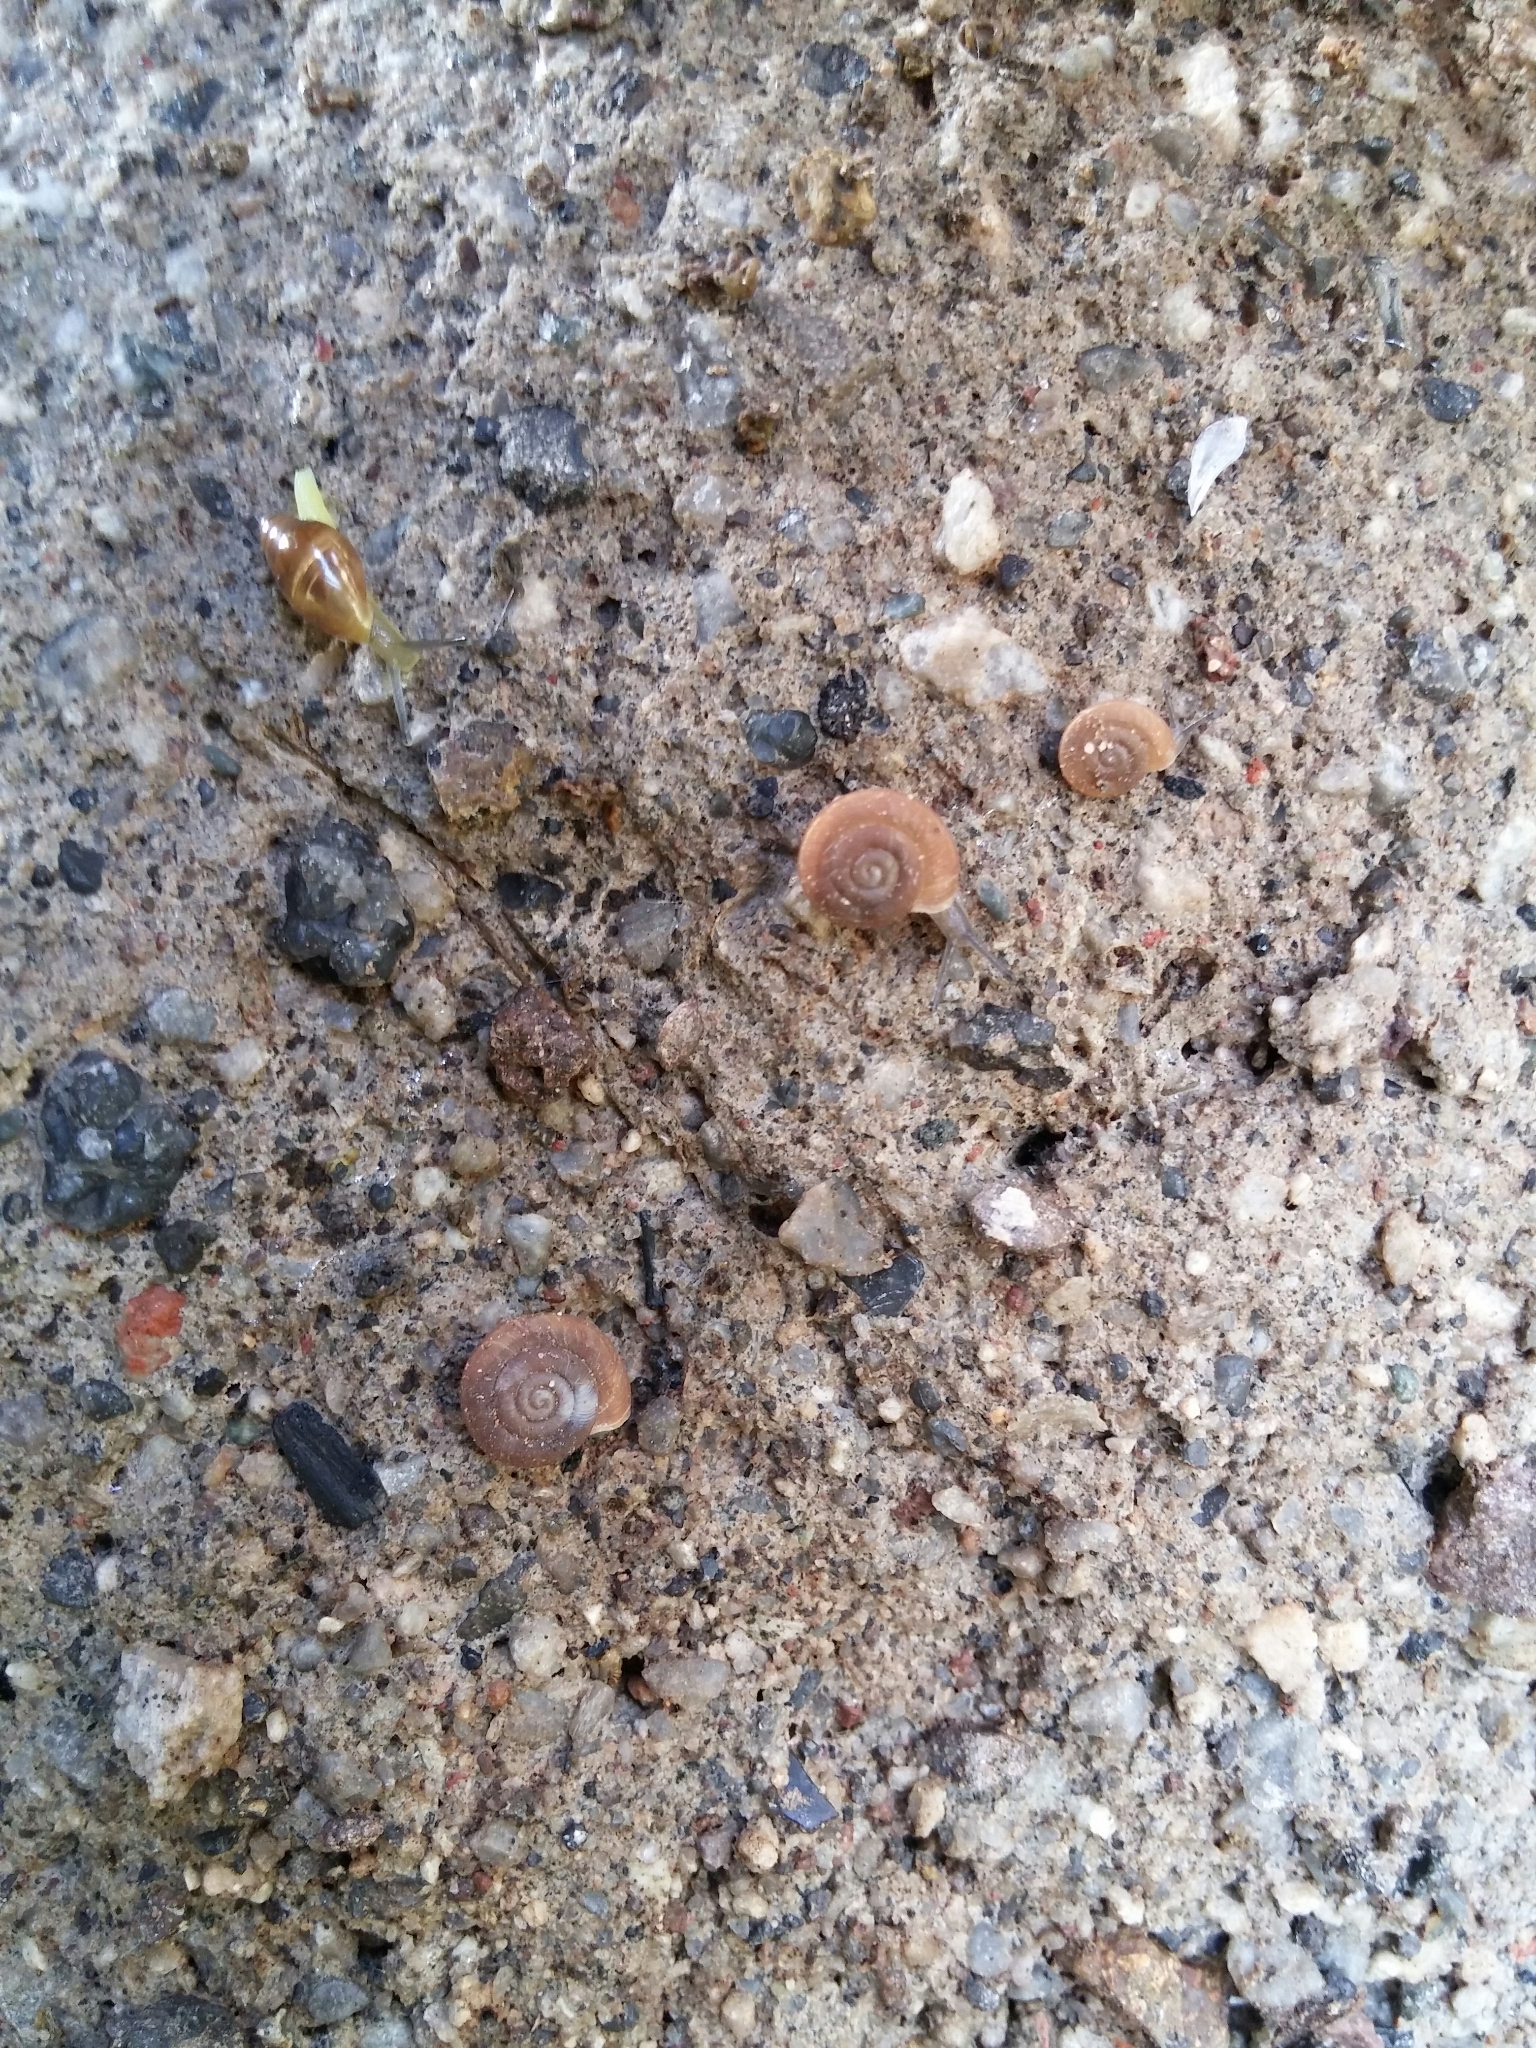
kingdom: Animalia
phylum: Mollusca
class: Gastropoda
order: Stylommatophora
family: Trissexodontidae
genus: Caracollina
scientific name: Caracollina lenticula
